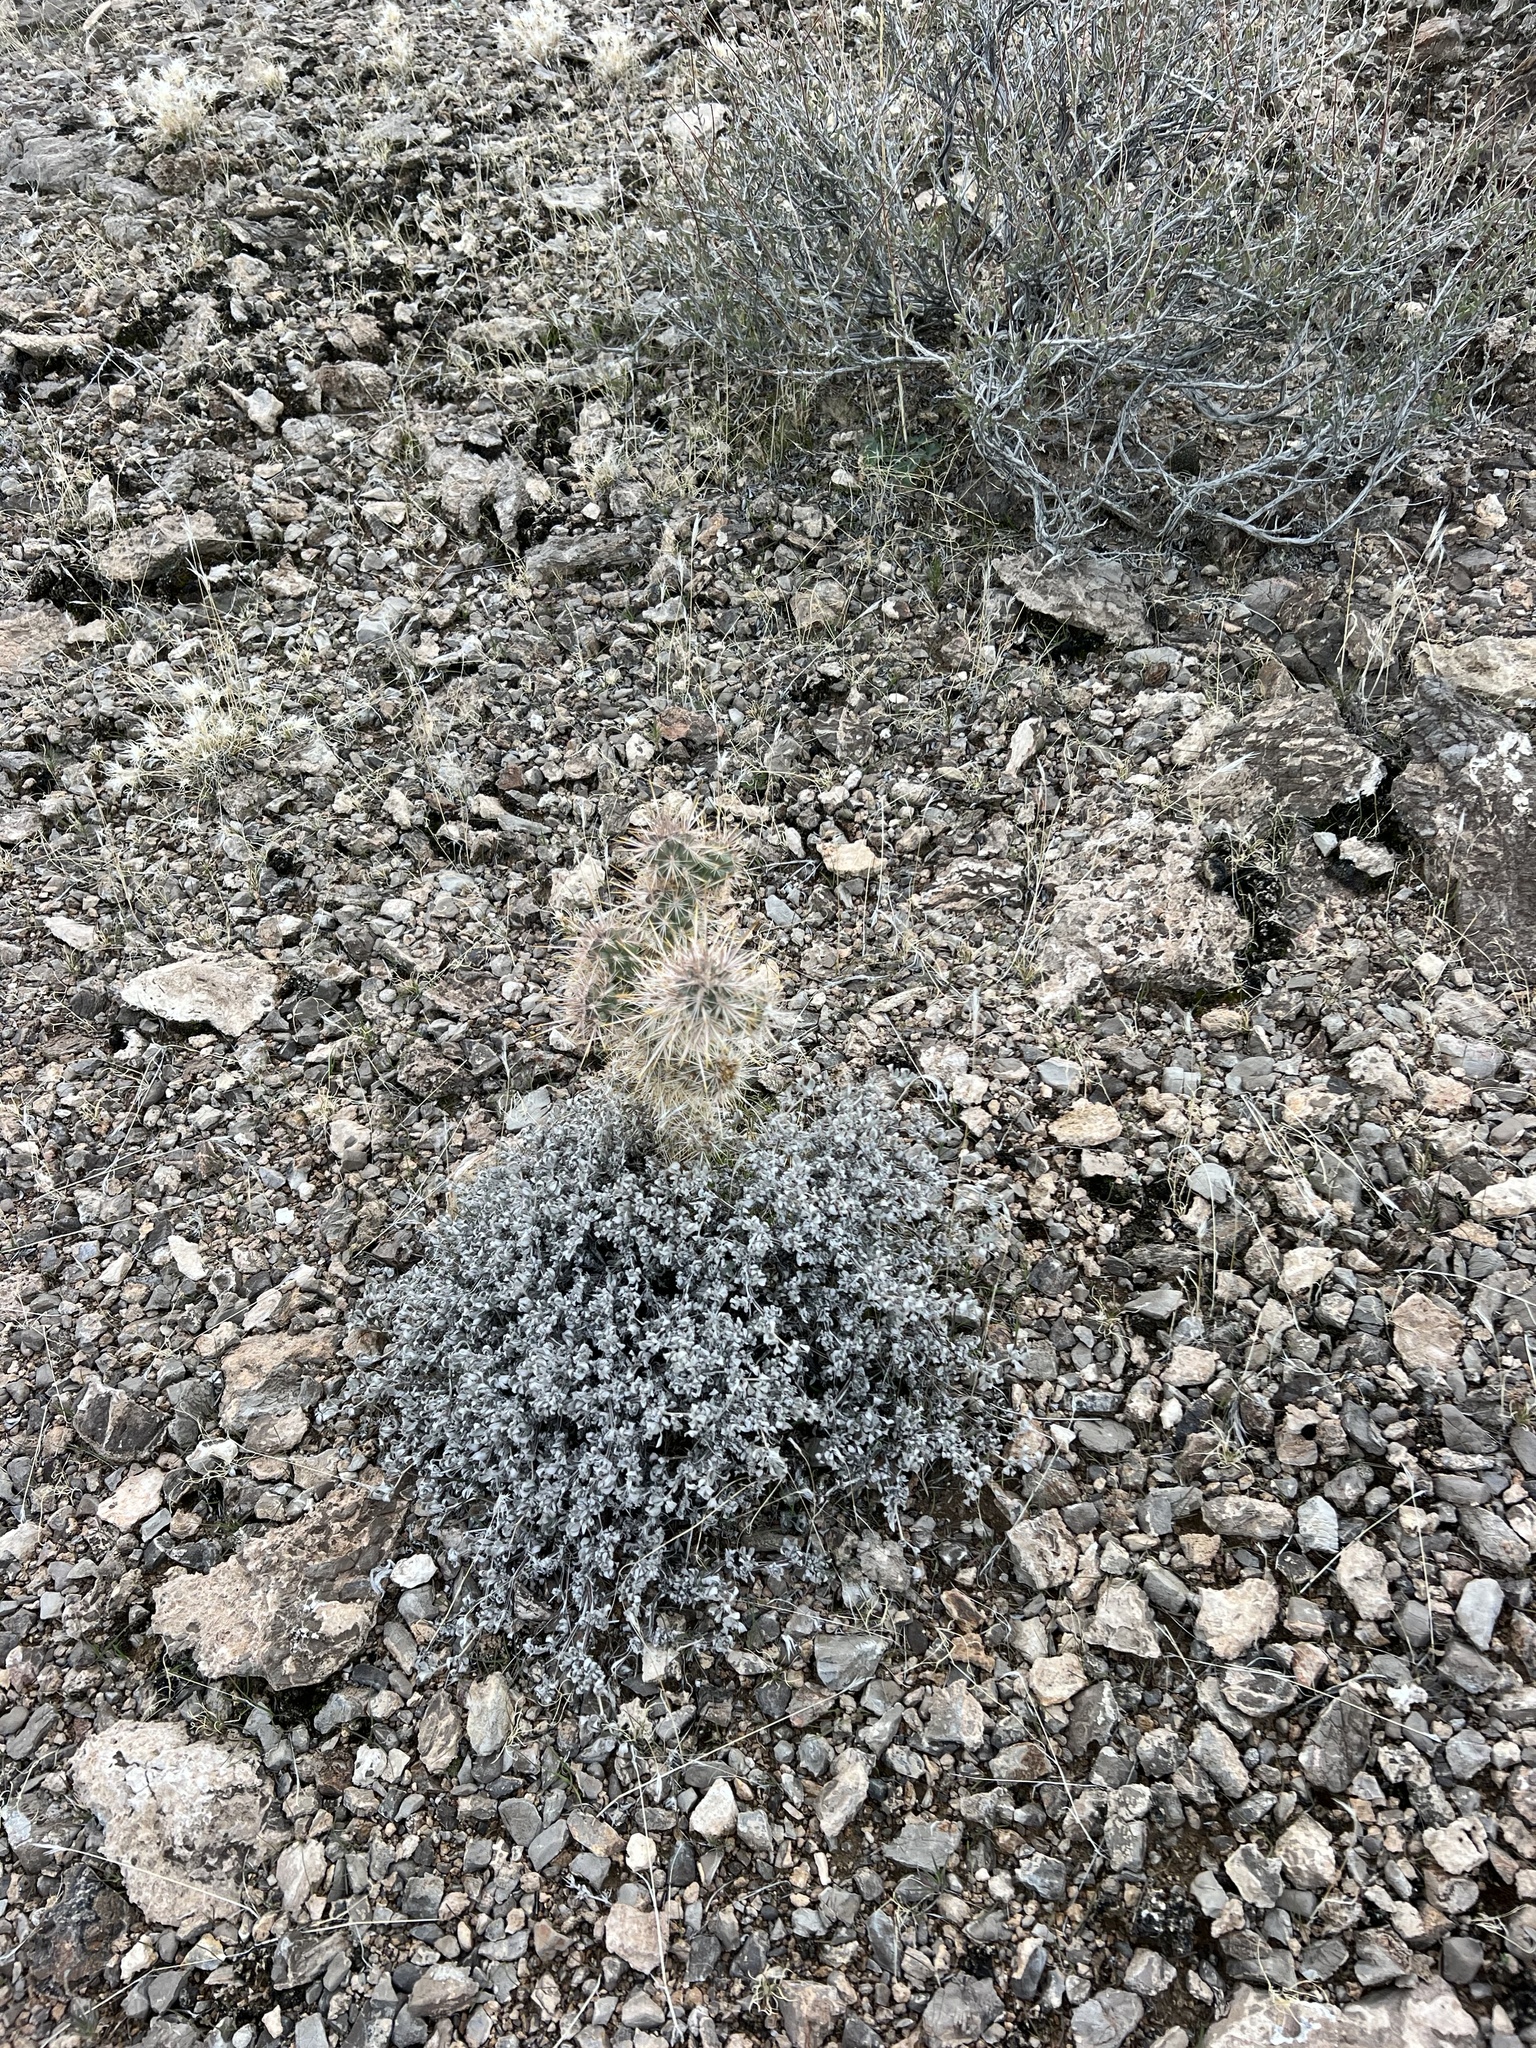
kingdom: Plantae
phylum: Tracheophyta
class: Magnoliopsida
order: Caryophyllales
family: Cactaceae
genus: Cylindropuntia
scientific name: Cylindropuntia echinocarpa
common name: Ground cholla
